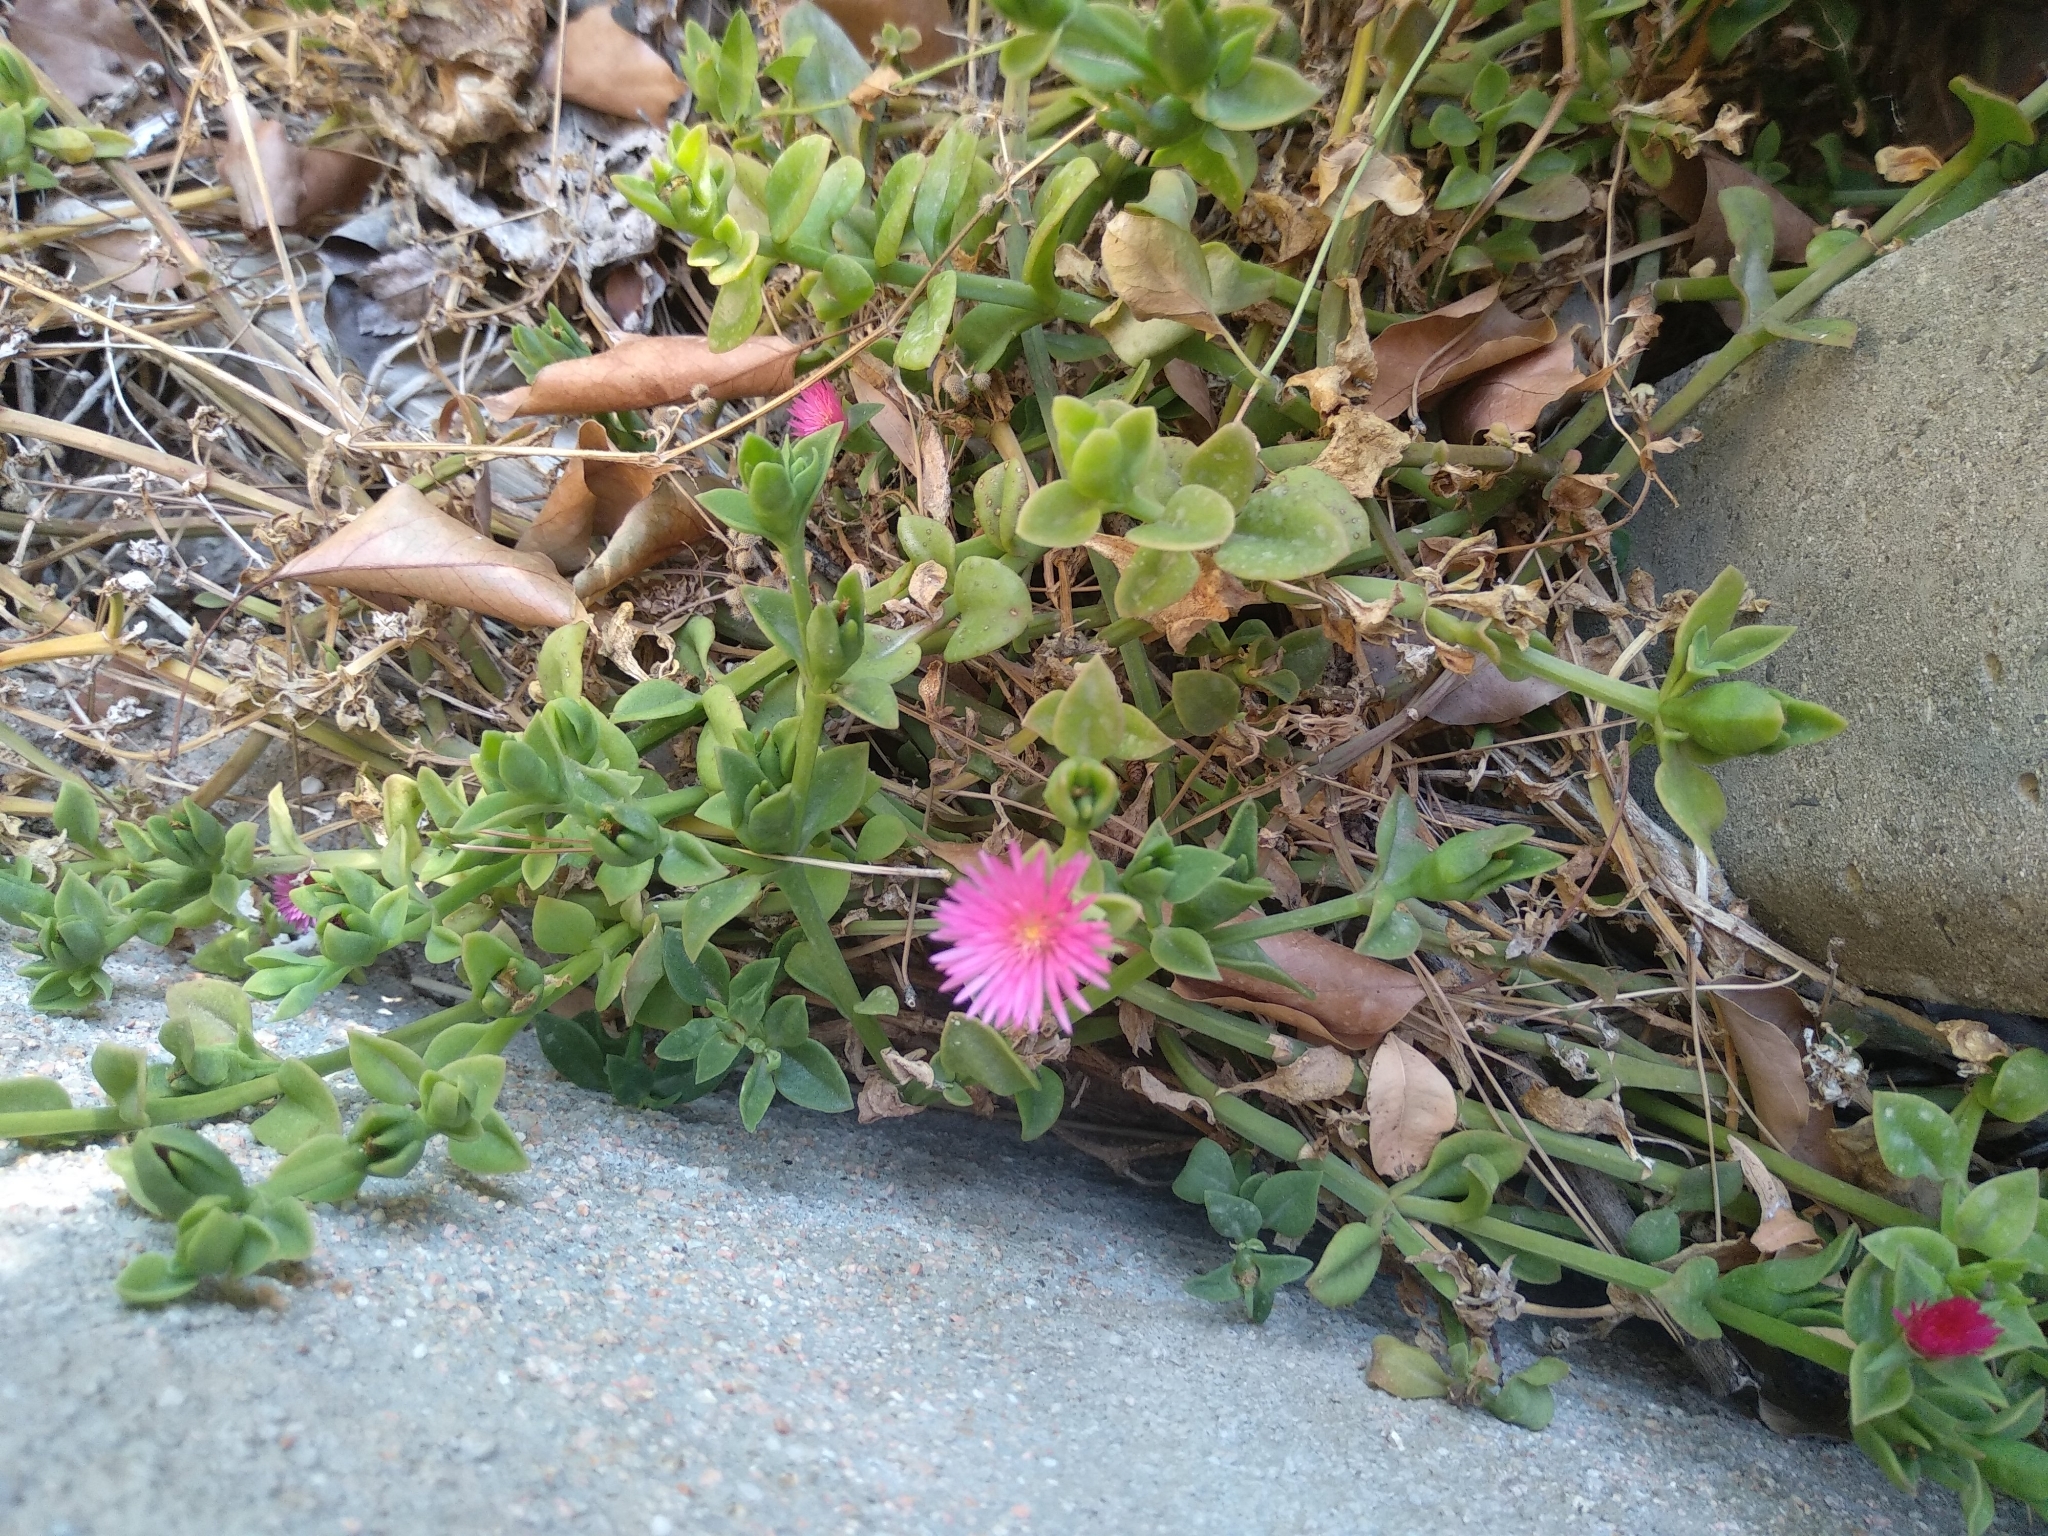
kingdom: Plantae
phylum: Tracheophyta
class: Magnoliopsida
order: Caryophyllales
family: Aizoaceae
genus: Mesembryanthemum
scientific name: Mesembryanthemum cordifolium
